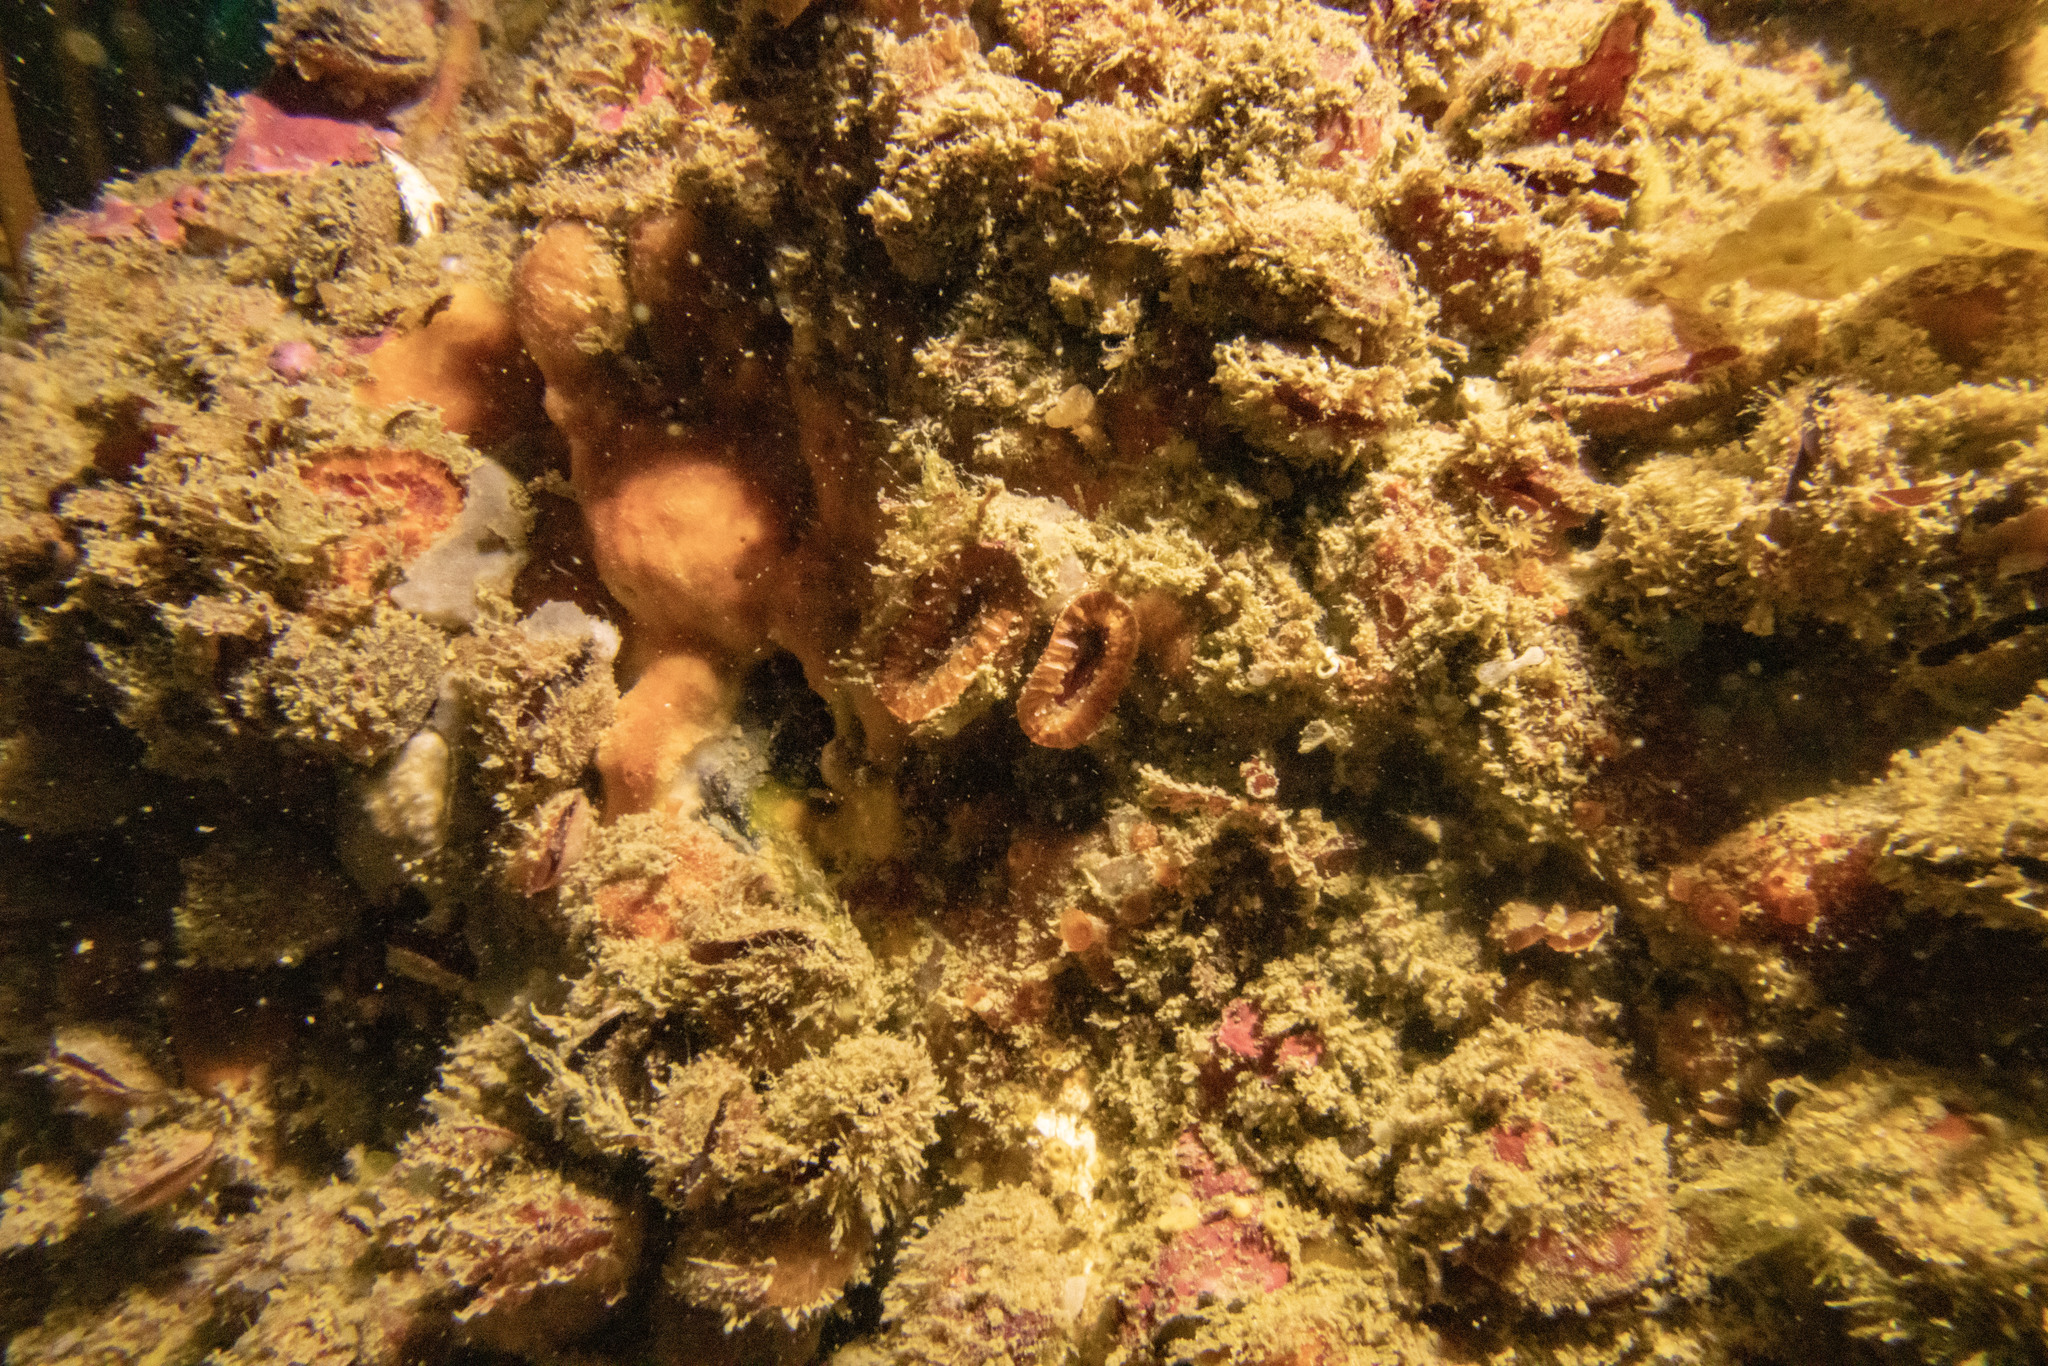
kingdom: Animalia
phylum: Cnidaria
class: Anthozoa
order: Scleractinia
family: Flabellidae
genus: Monomyces
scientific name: Monomyces rubrum
